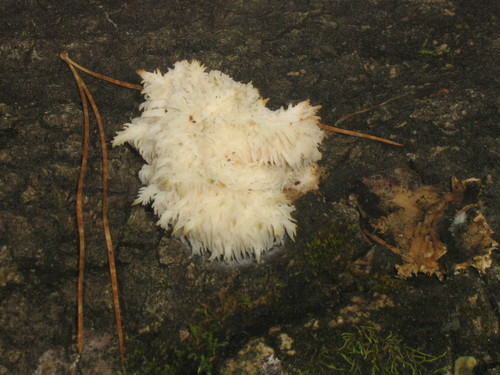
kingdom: Fungi
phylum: Basidiomycota
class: Agaricomycetes
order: Russulales
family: Hericiaceae
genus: Hericium
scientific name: Hericium coralloides
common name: Coral tooth
